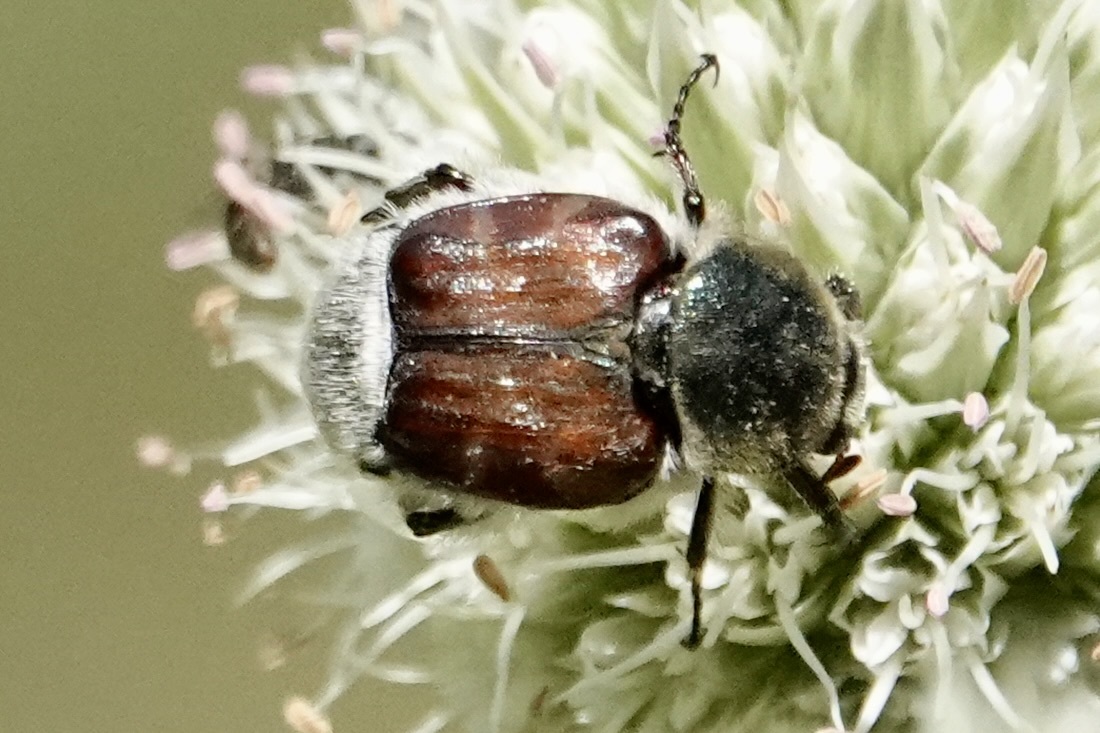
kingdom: Animalia
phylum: Arthropoda
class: Insecta
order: Coleoptera
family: Scarabaeidae
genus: Trichiotinus
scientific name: Trichiotinus piger
